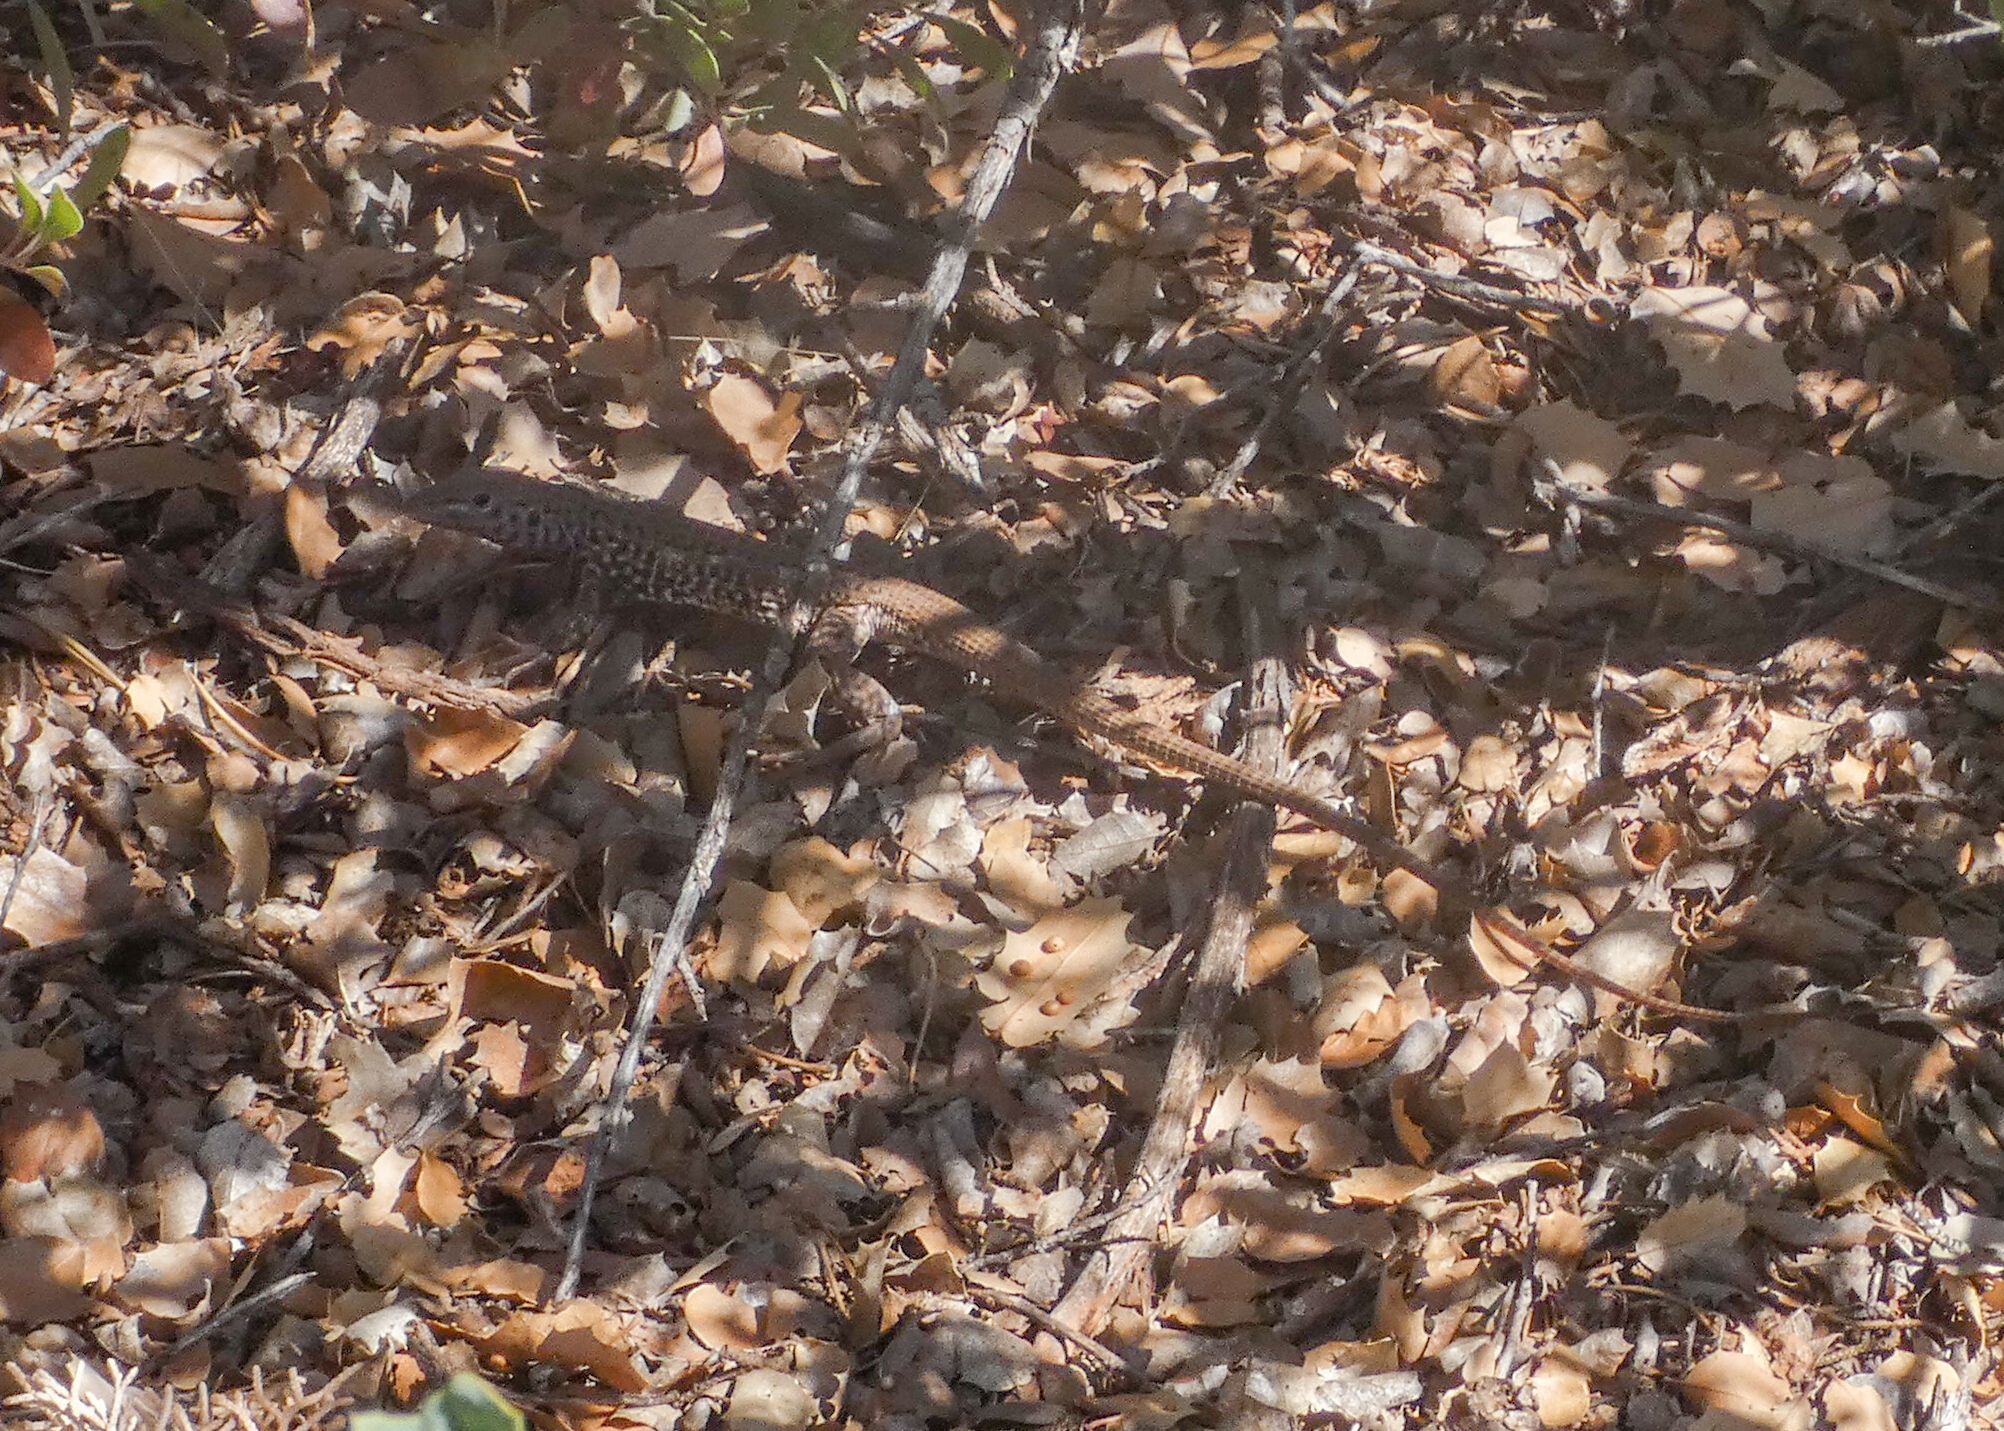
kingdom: Animalia
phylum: Chordata
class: Squamata
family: Teiidae
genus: Aspidoscelis
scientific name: Aspidoscelis tigris
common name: Tiger whiptail
